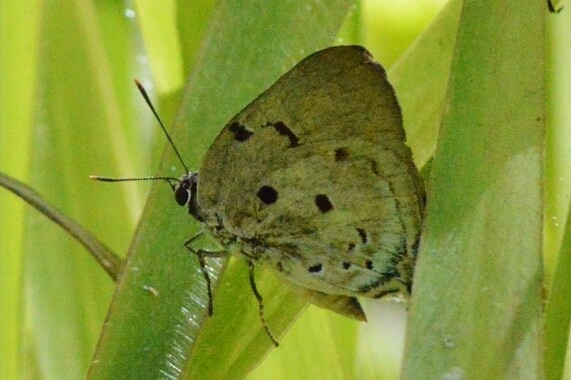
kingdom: Animalia
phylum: Arthropoda
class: Insecta
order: Lepidoptera
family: Lycaenidae
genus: Oenomaus
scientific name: Oenomaus ortygnus
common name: Aquamarine hairstreak
